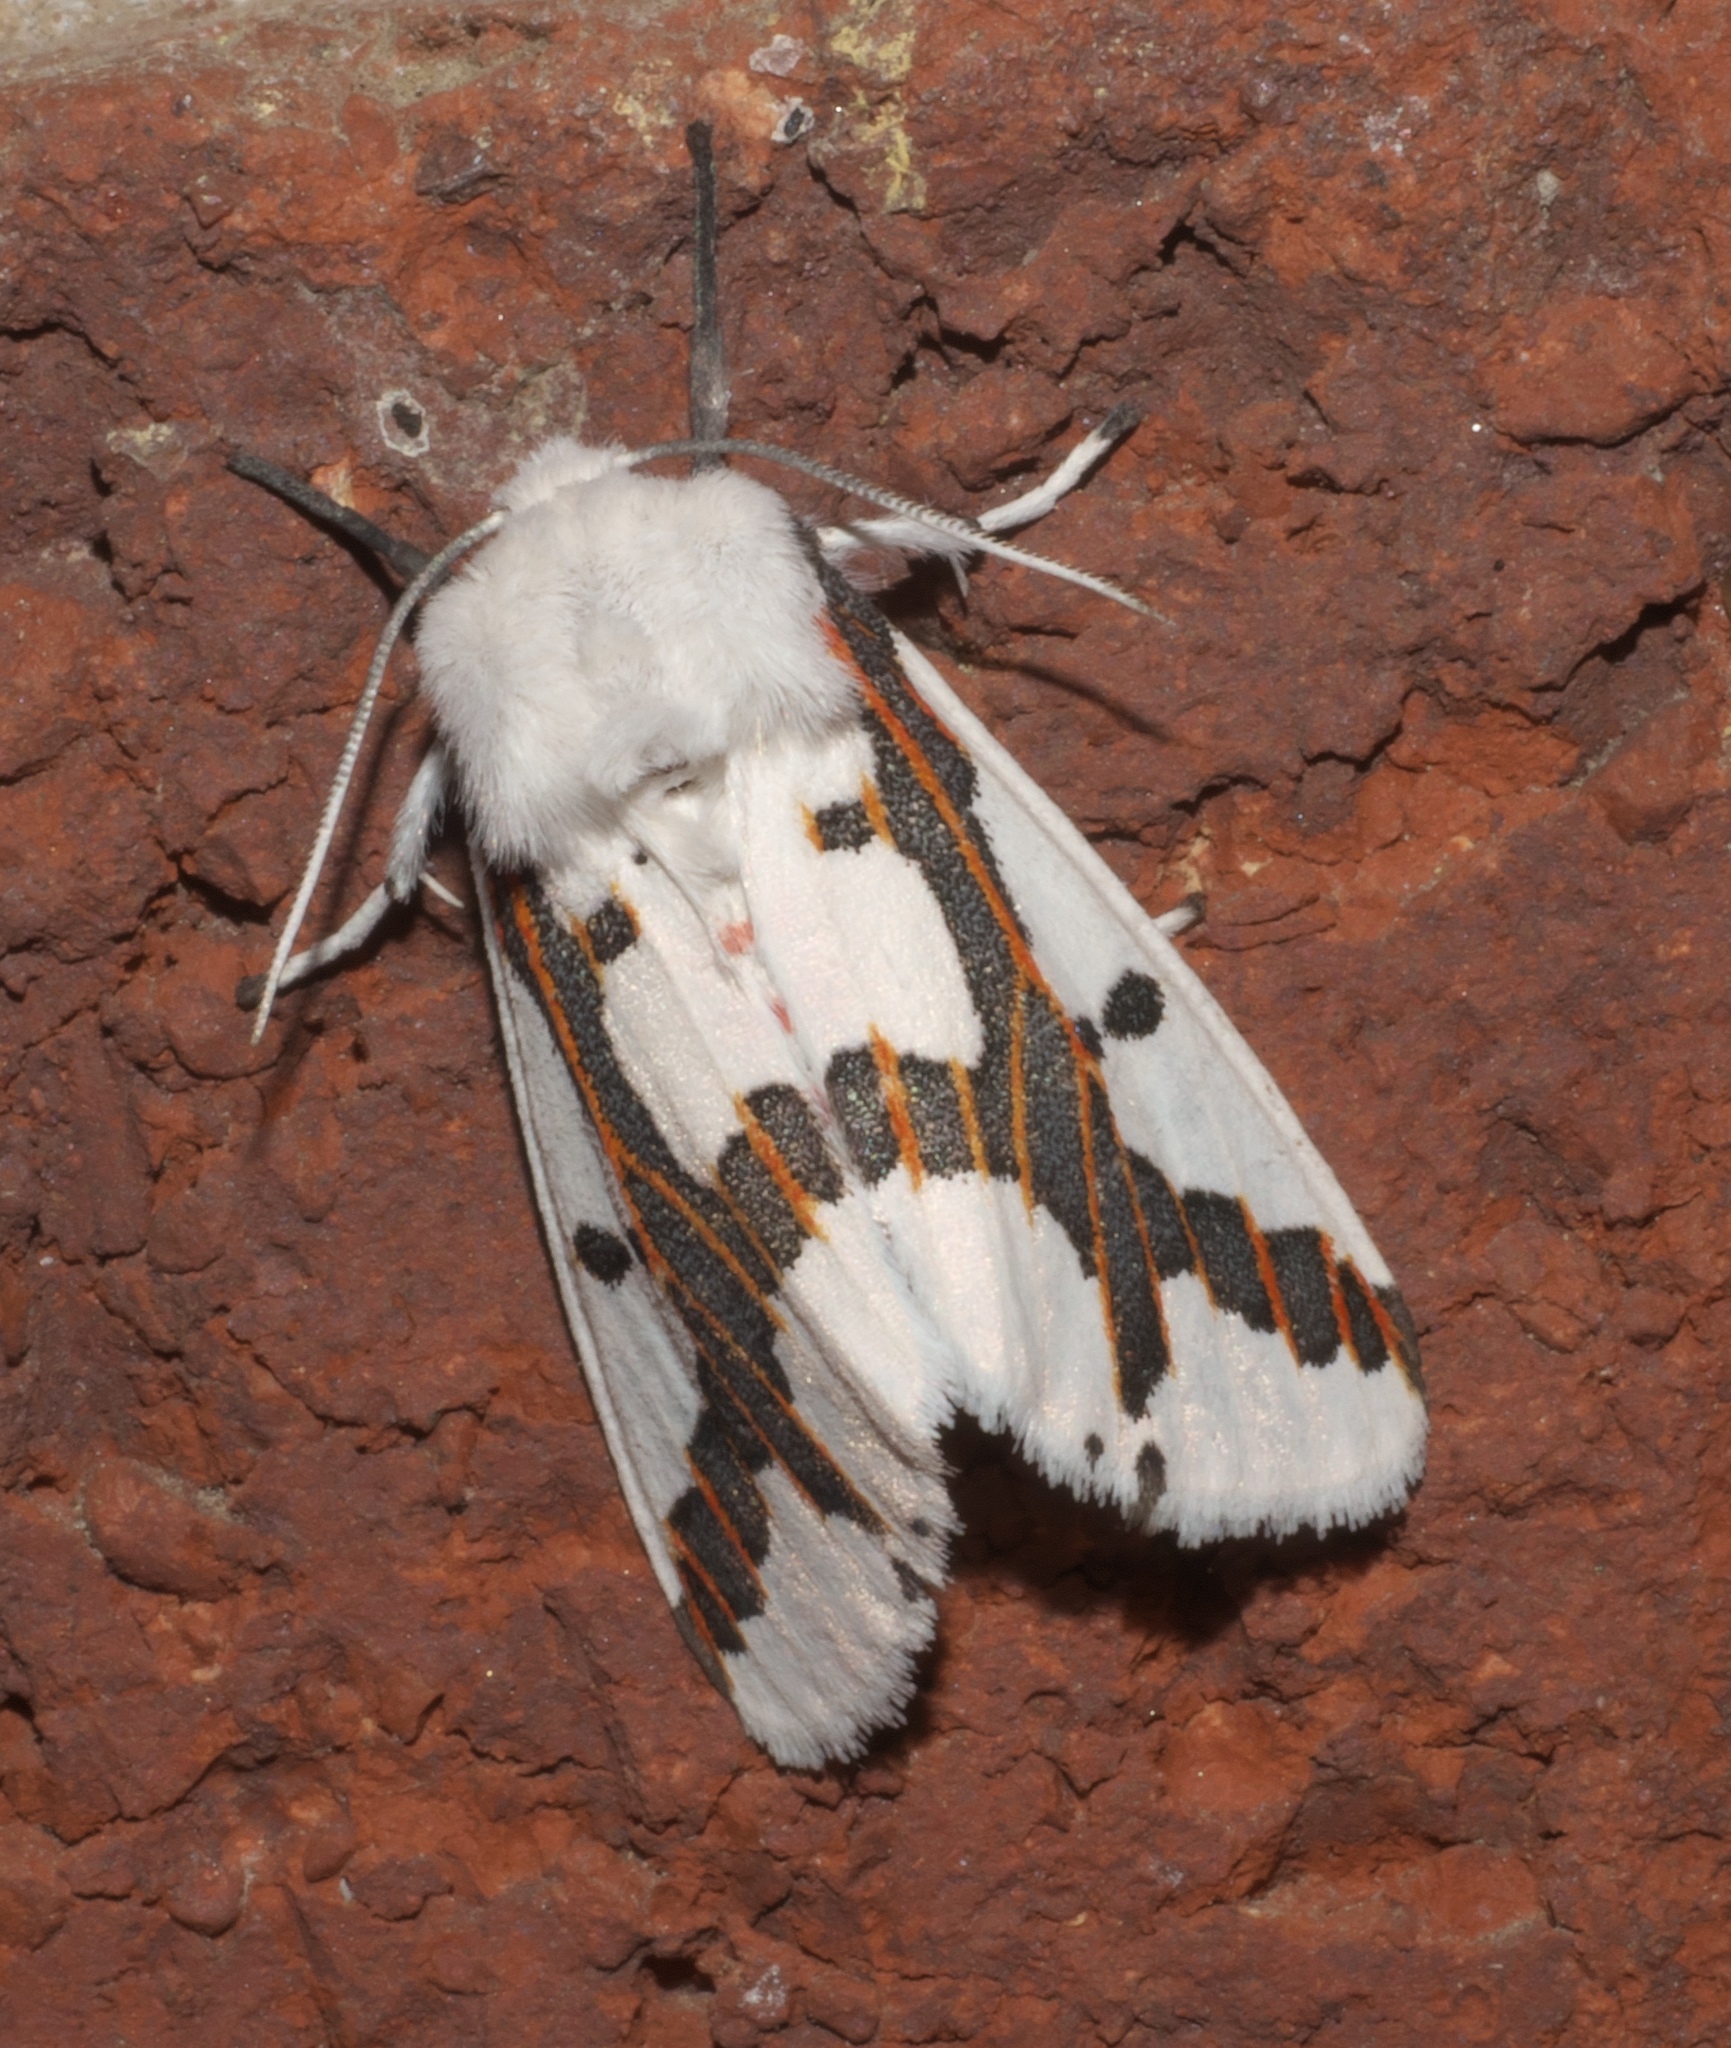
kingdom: Animalia
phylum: Arthropoda
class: Insecta
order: Lepidoptera
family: Erebidae
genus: Euerythra
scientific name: Euerythra phasma
